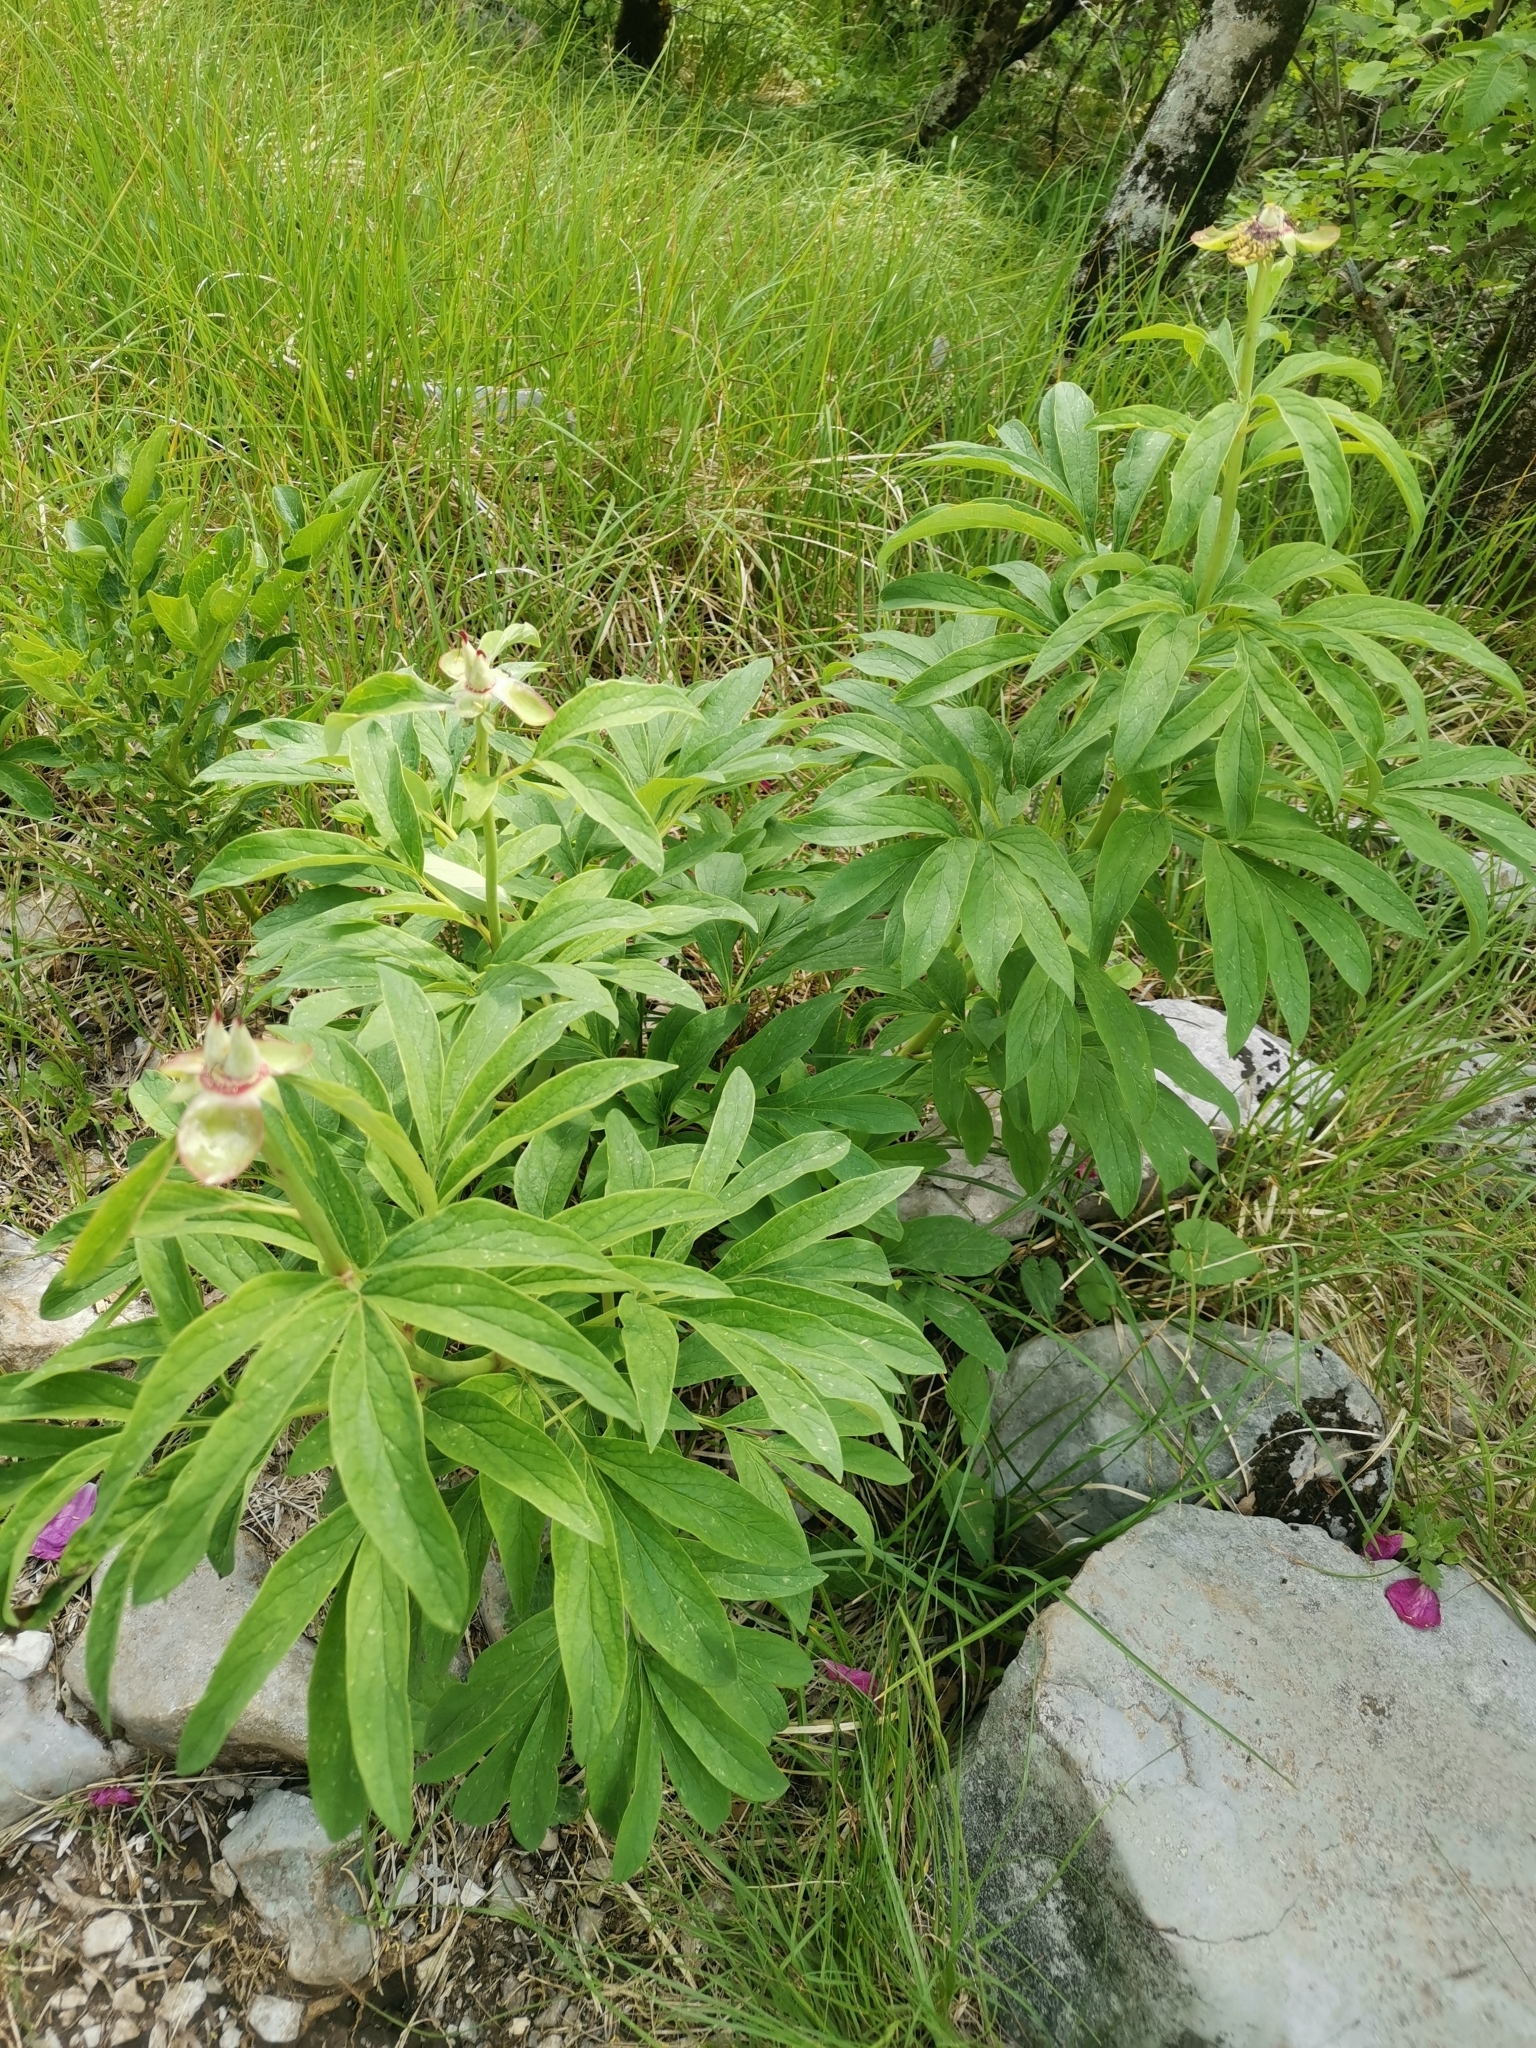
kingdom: Plantae
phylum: Tracheophyta
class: Magnoliopsida
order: Saxifragales
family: Paeoniaceae
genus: Paeonia
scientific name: Paeonia officinalis
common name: Common peony
